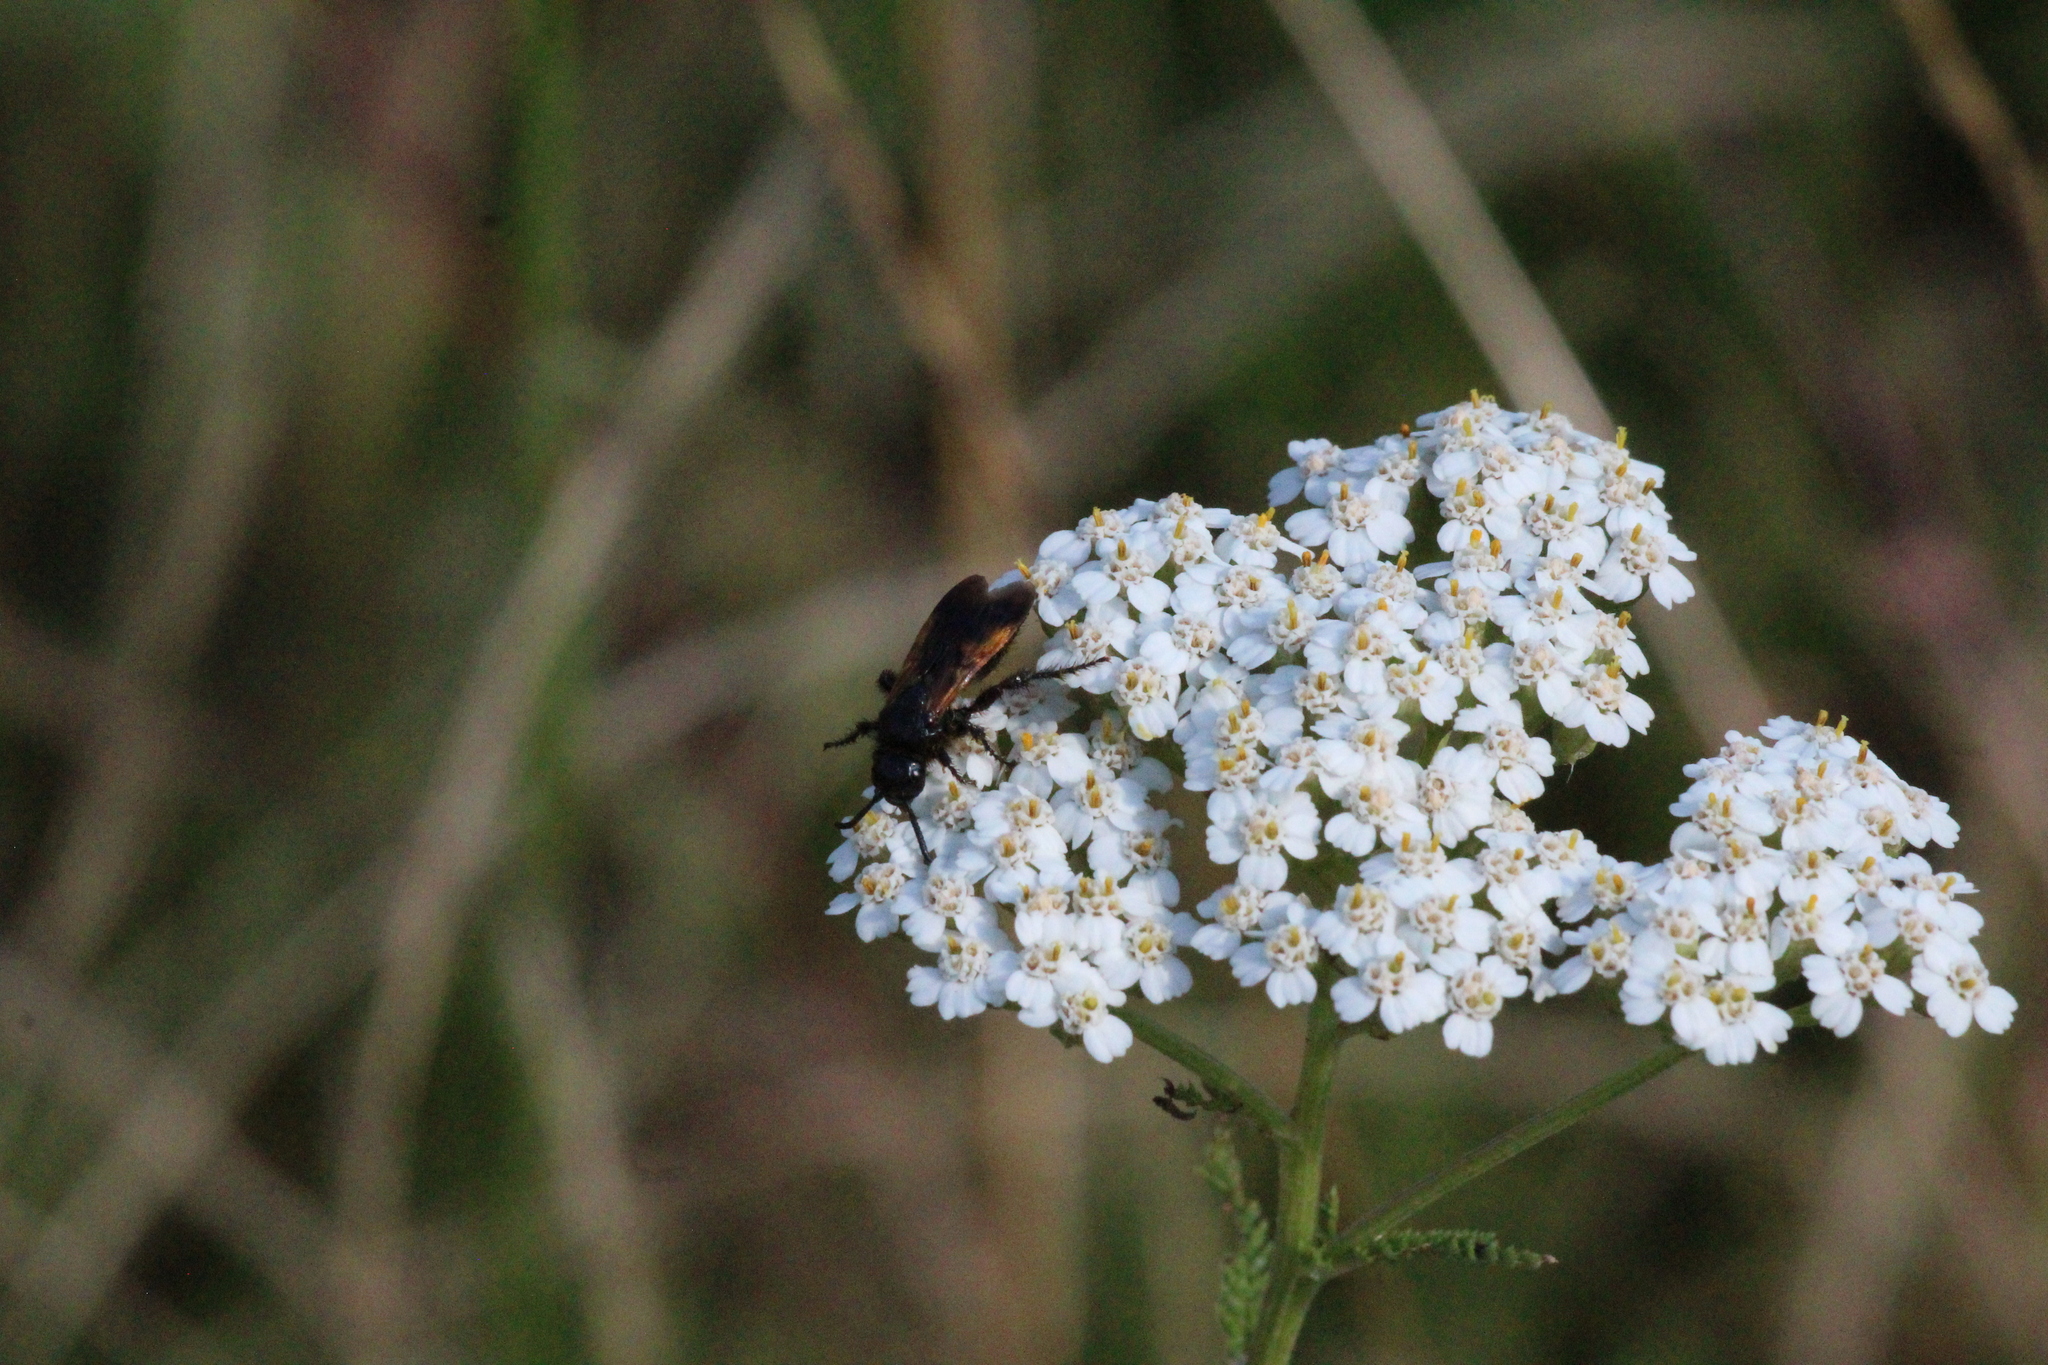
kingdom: Animalia
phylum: Arthropoda
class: Insecta
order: Hymenoptera
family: Vespidae
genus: Vespa
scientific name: Vespa sexmaculata
